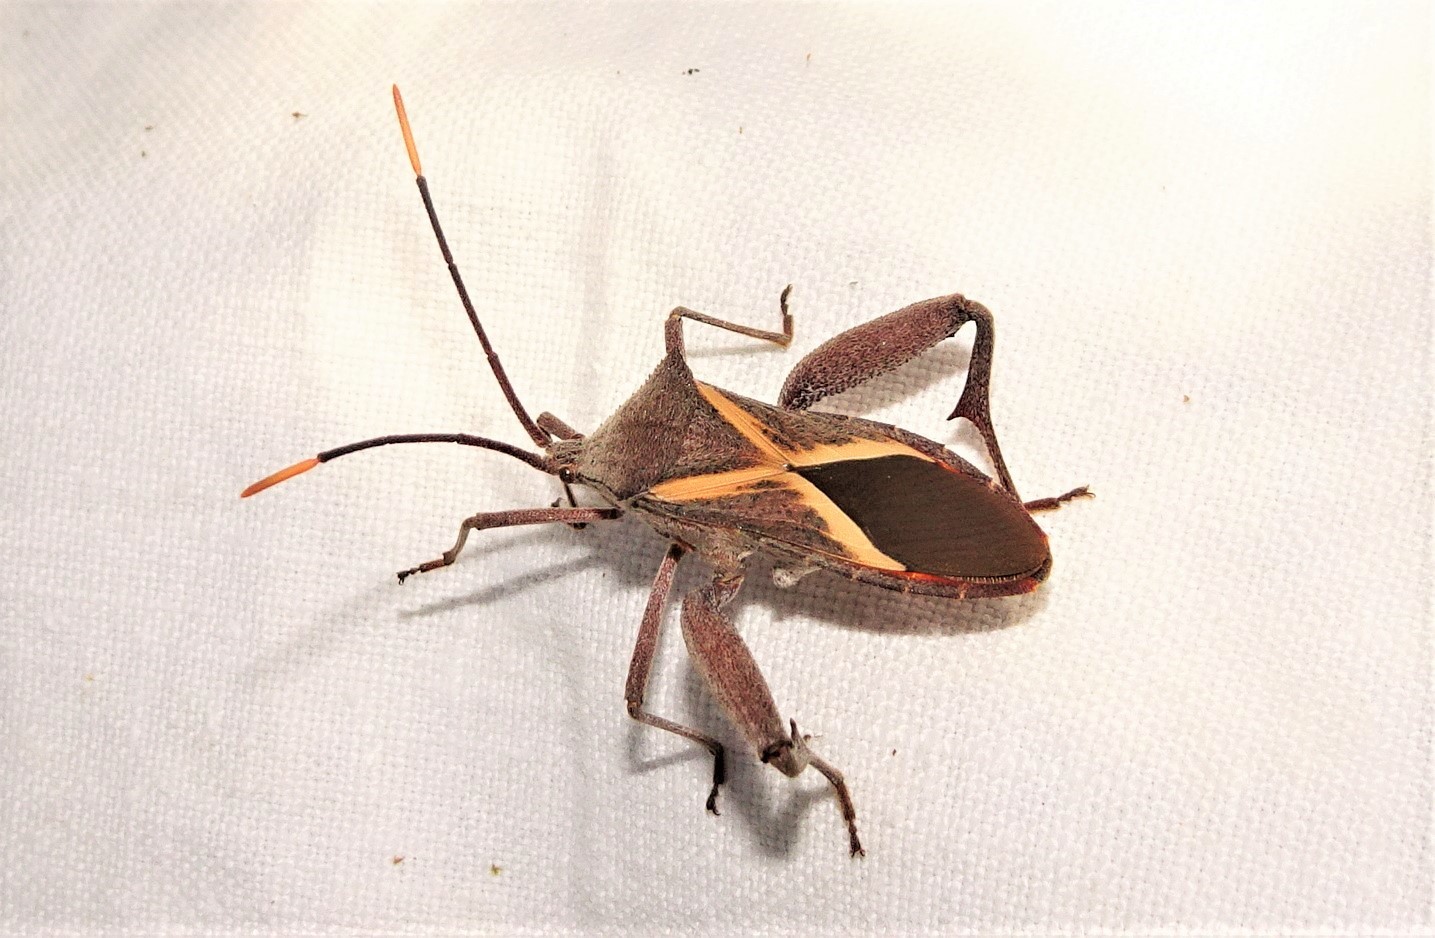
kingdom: Animalia
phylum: Arthropoda
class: Insecta
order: Hemiptera
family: Coreidae
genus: Mictis
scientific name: Mictis profana
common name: Crusader bug
